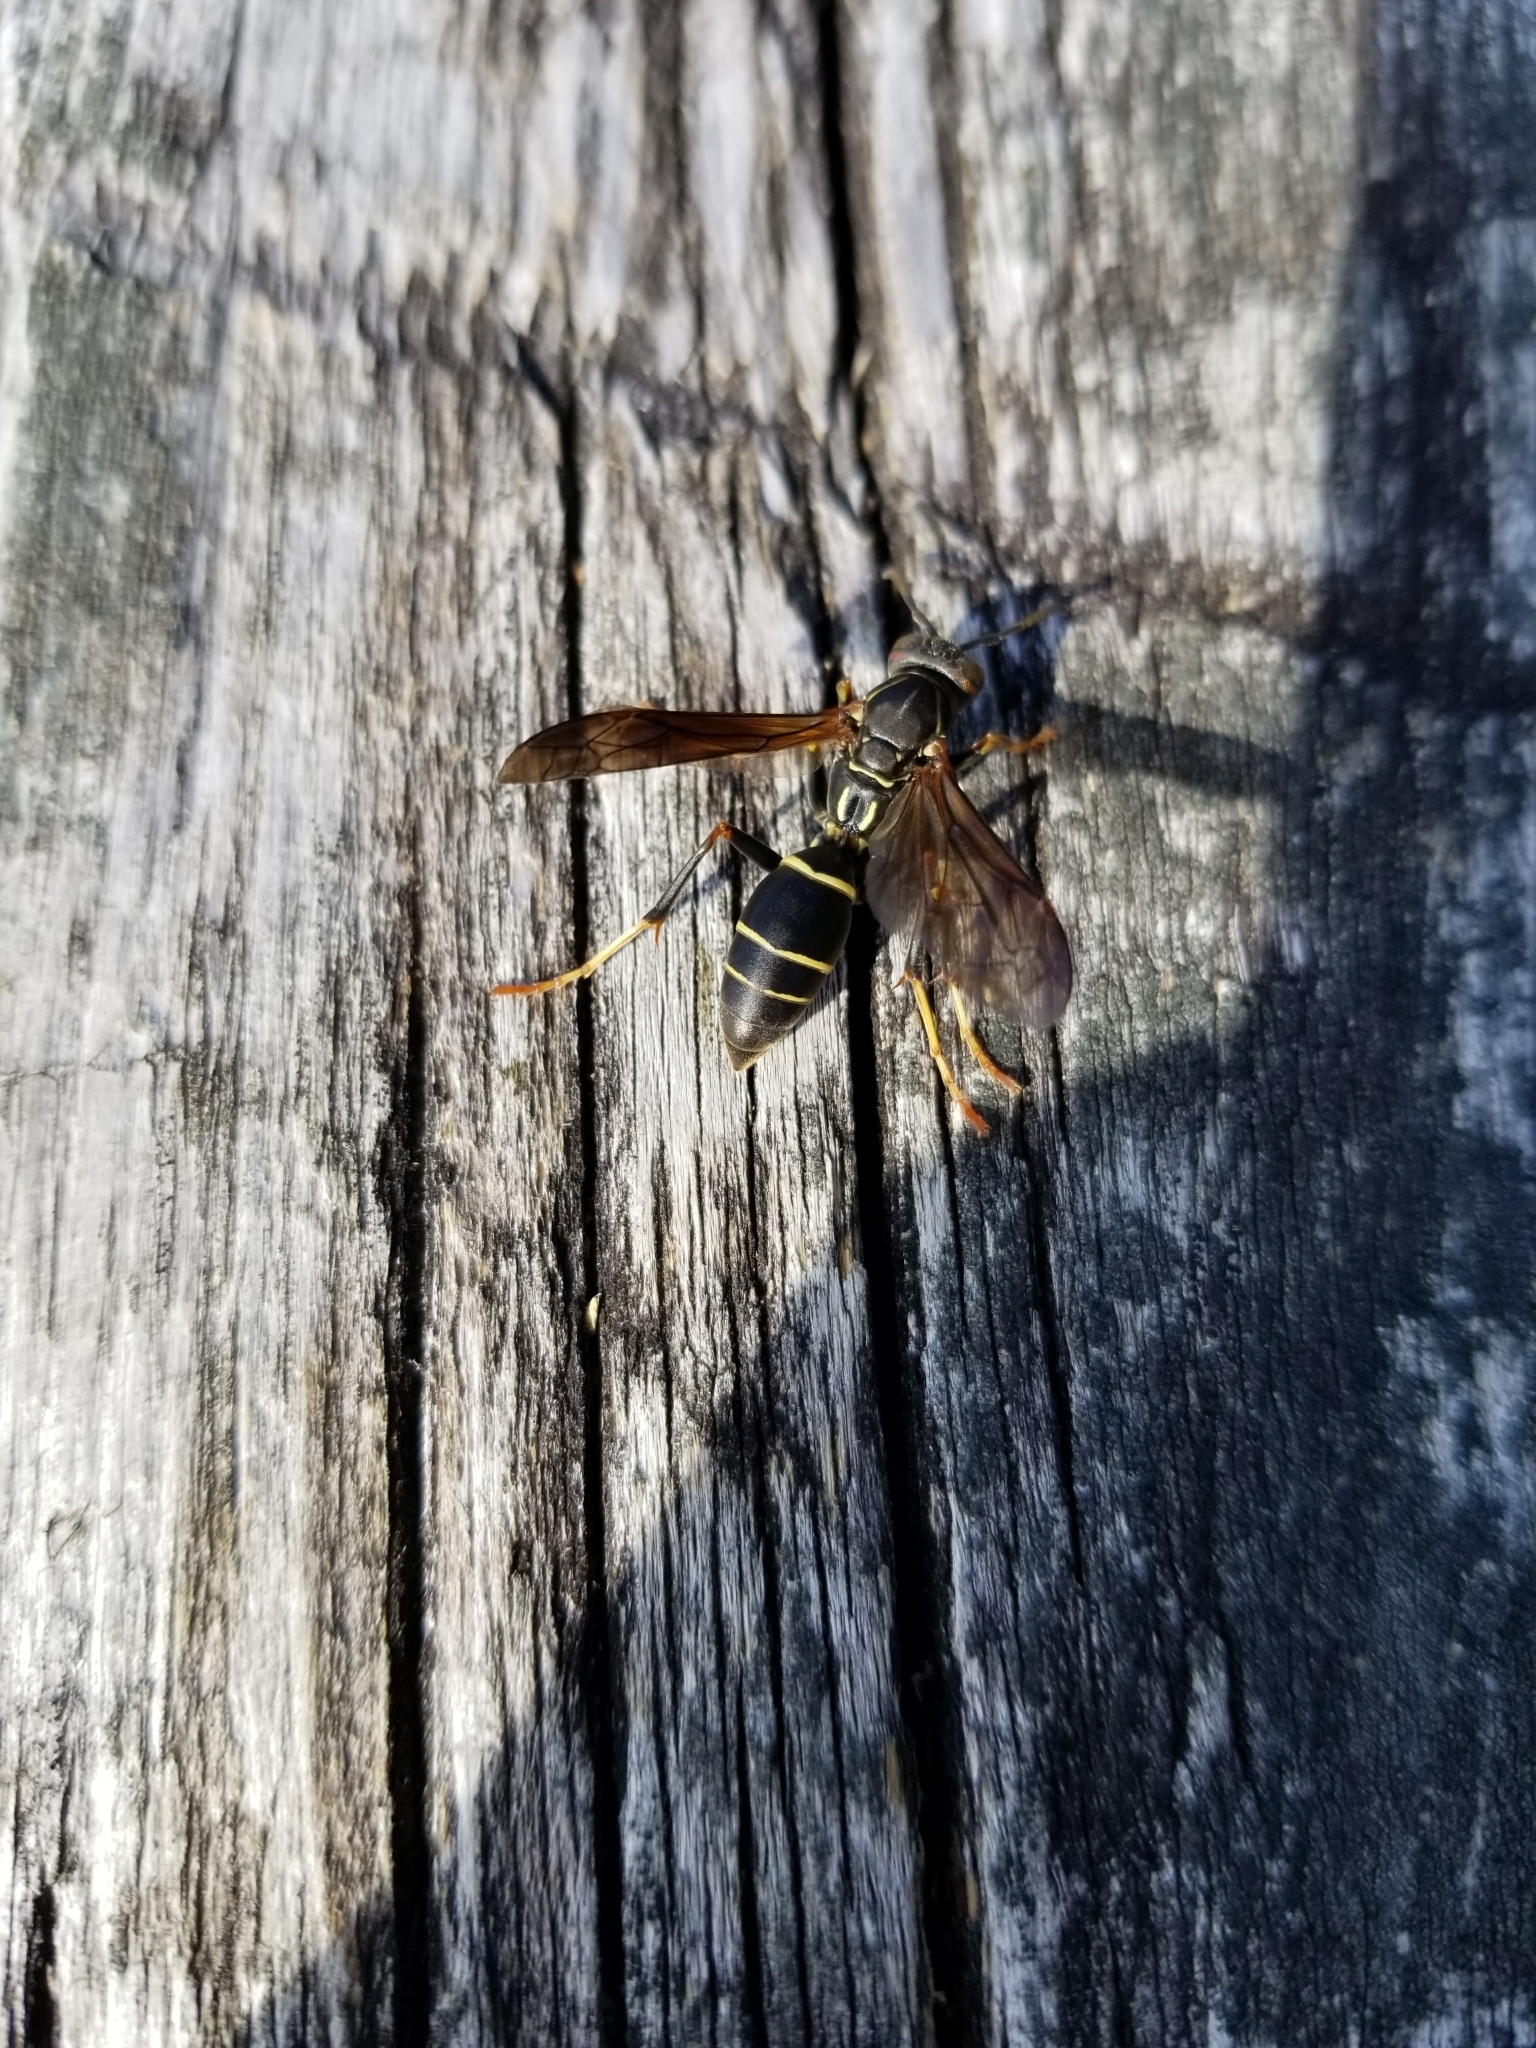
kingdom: Animalia
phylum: Arthropoda
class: Insecta
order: Hymenoptera
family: Eumenidae
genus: Polistes
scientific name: Polistes fuscatus
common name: Dark paper wasp
